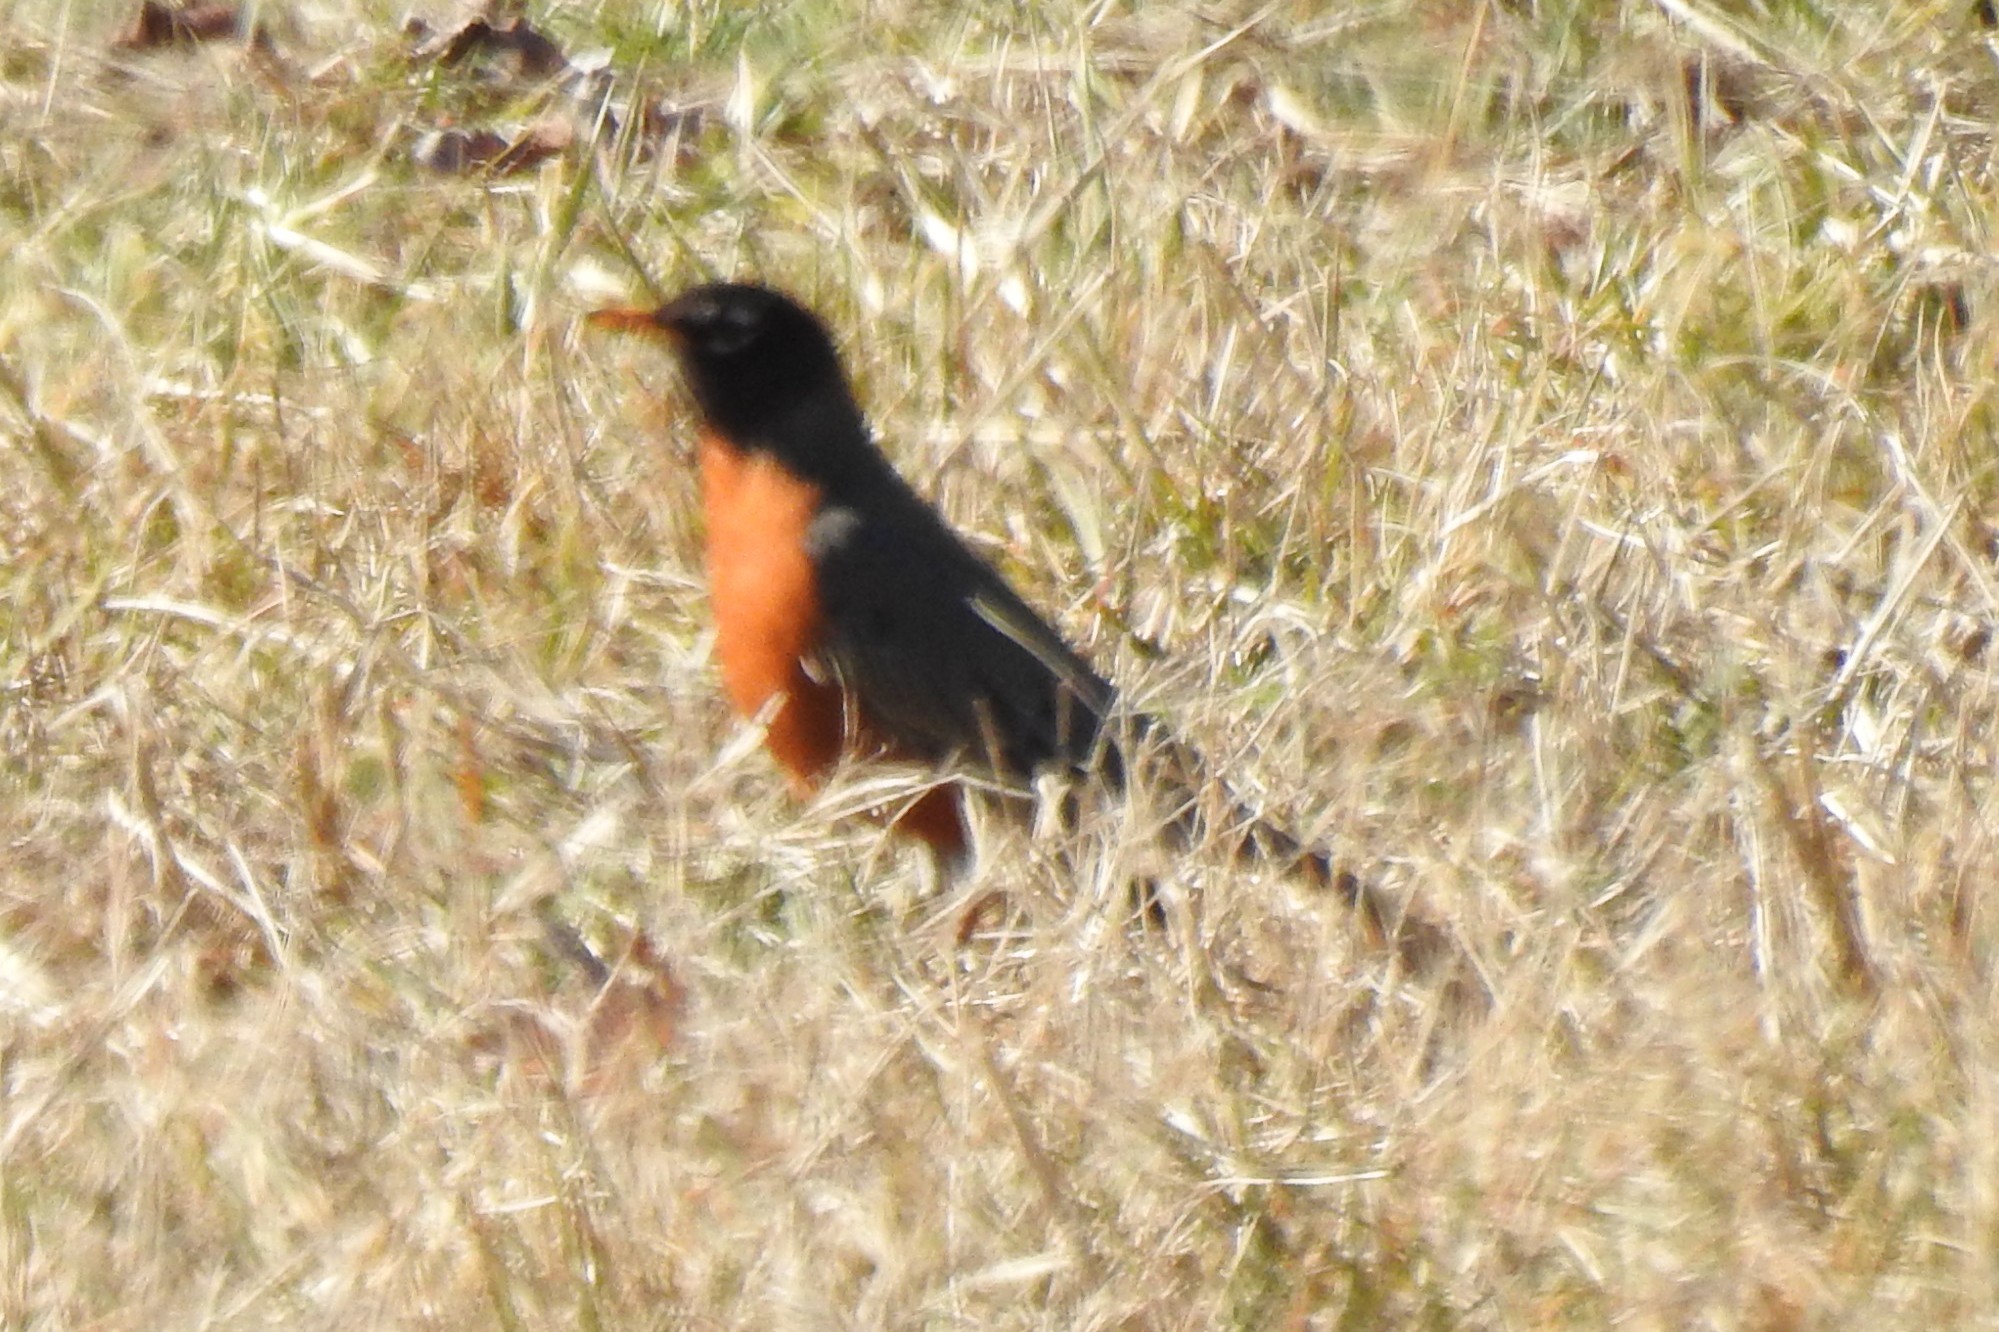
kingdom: Animalia
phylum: Chordata
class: Aves
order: Passeriformes
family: Turdidae
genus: Turdus
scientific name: Turdus migratorius
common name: American robin
